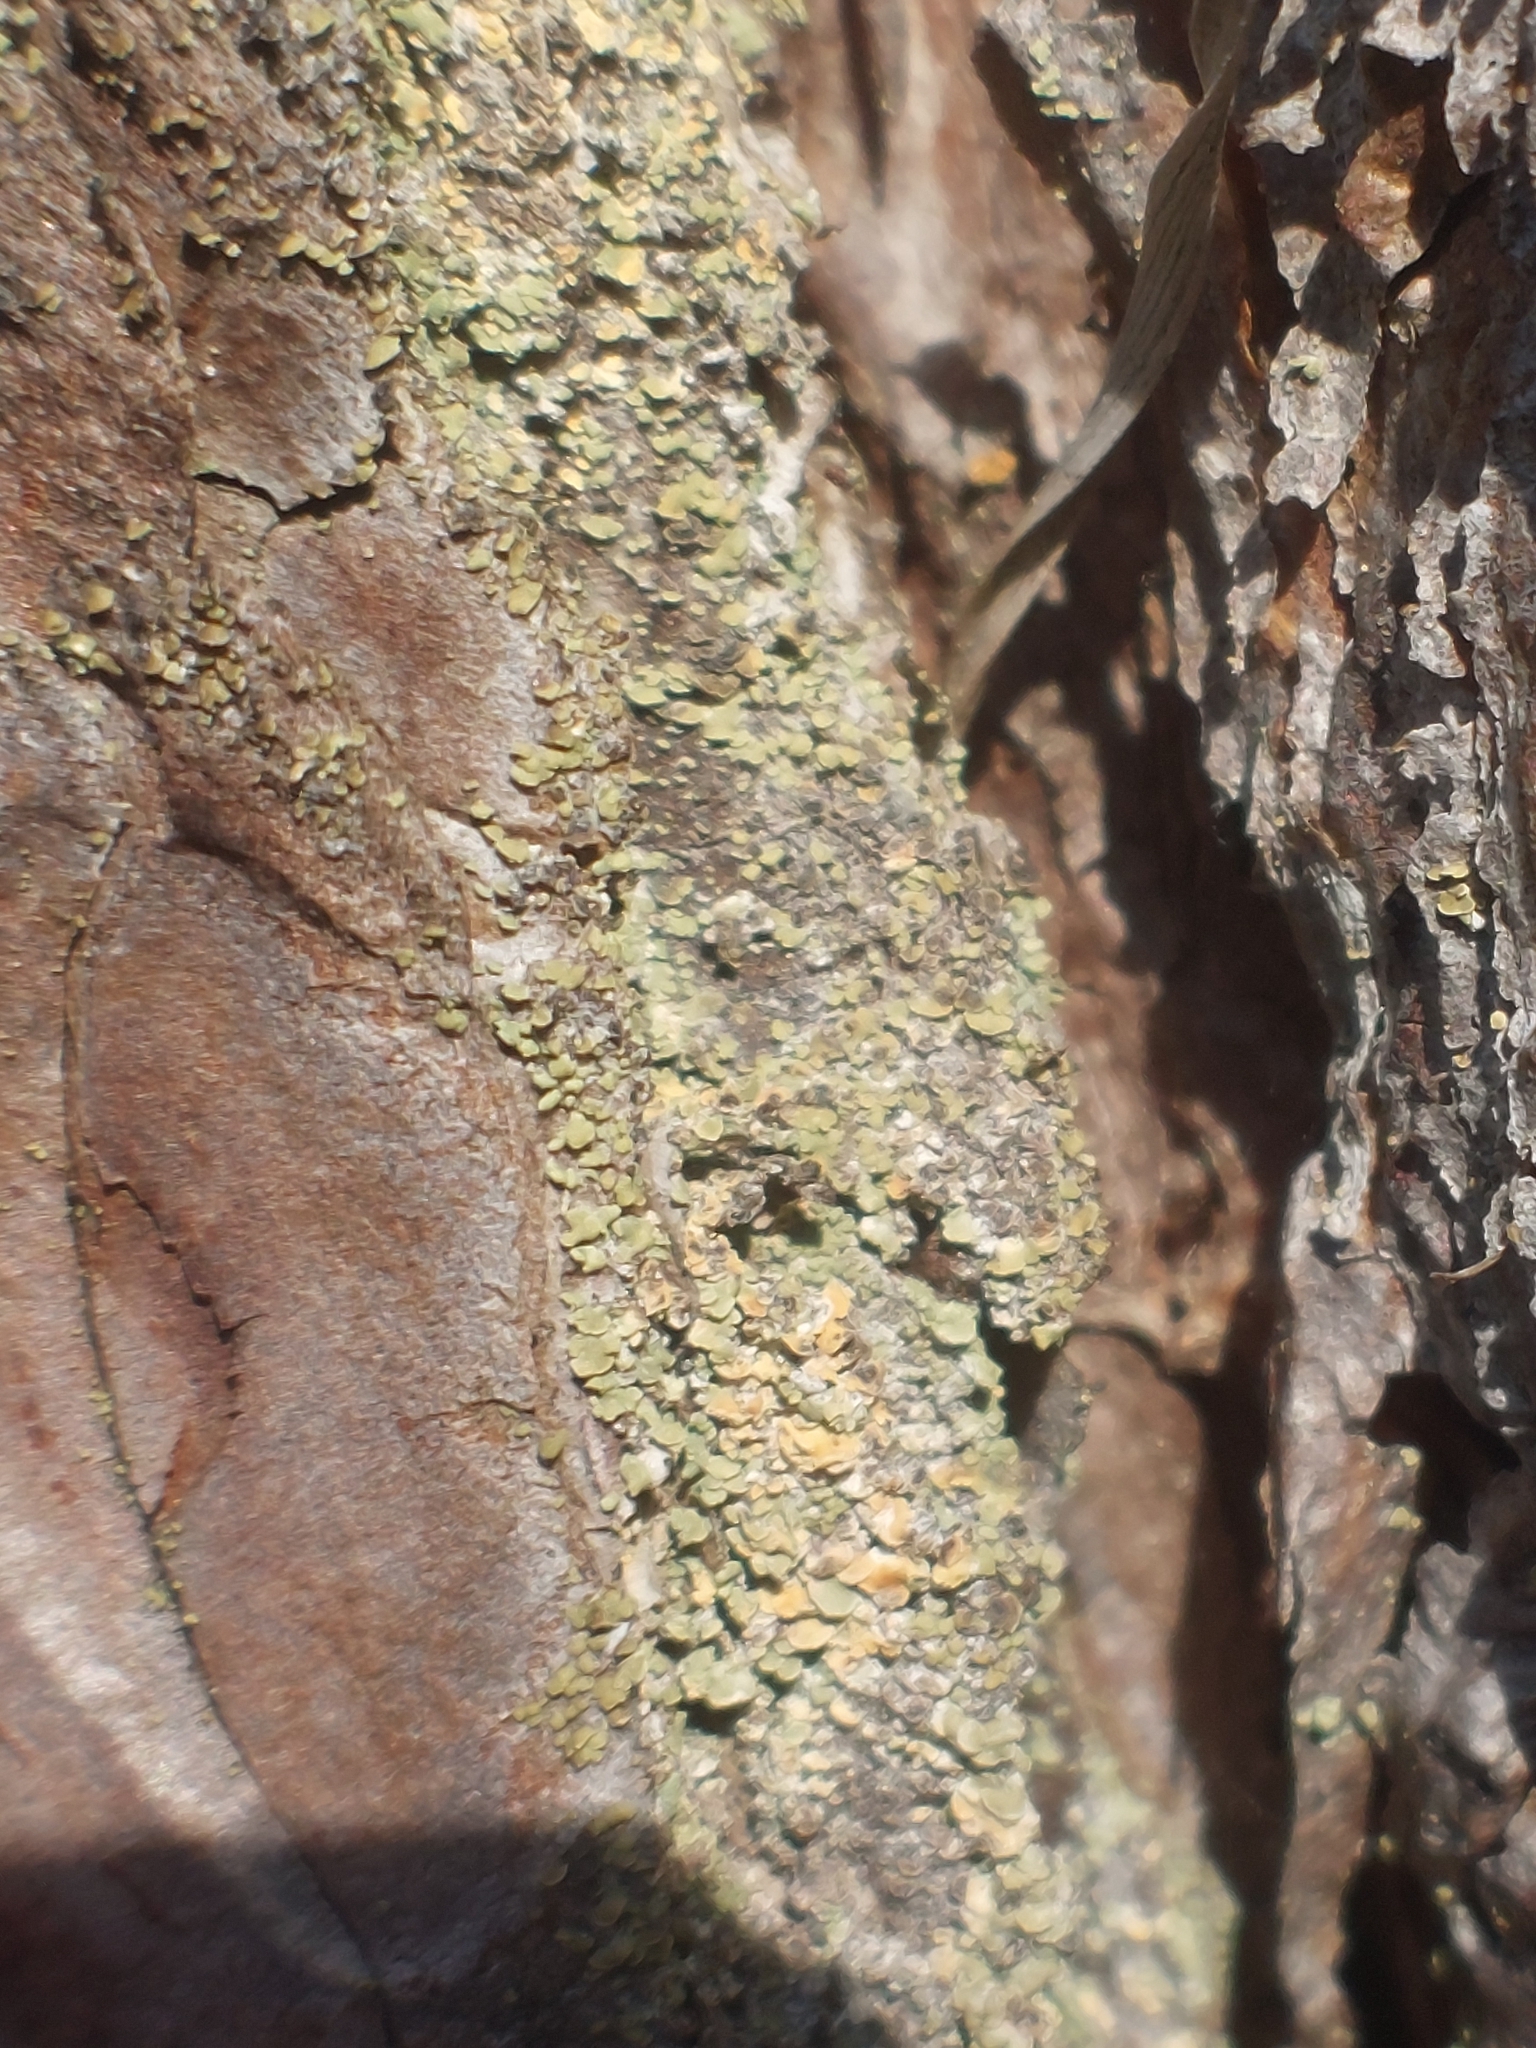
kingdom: Fungi
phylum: Ascomycota
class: Lecanoromycetes
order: Umbilicariales
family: Ophioparmaceae
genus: Hypocenomyce
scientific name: Hypocenomyce scalaris
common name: Common clam lichen
